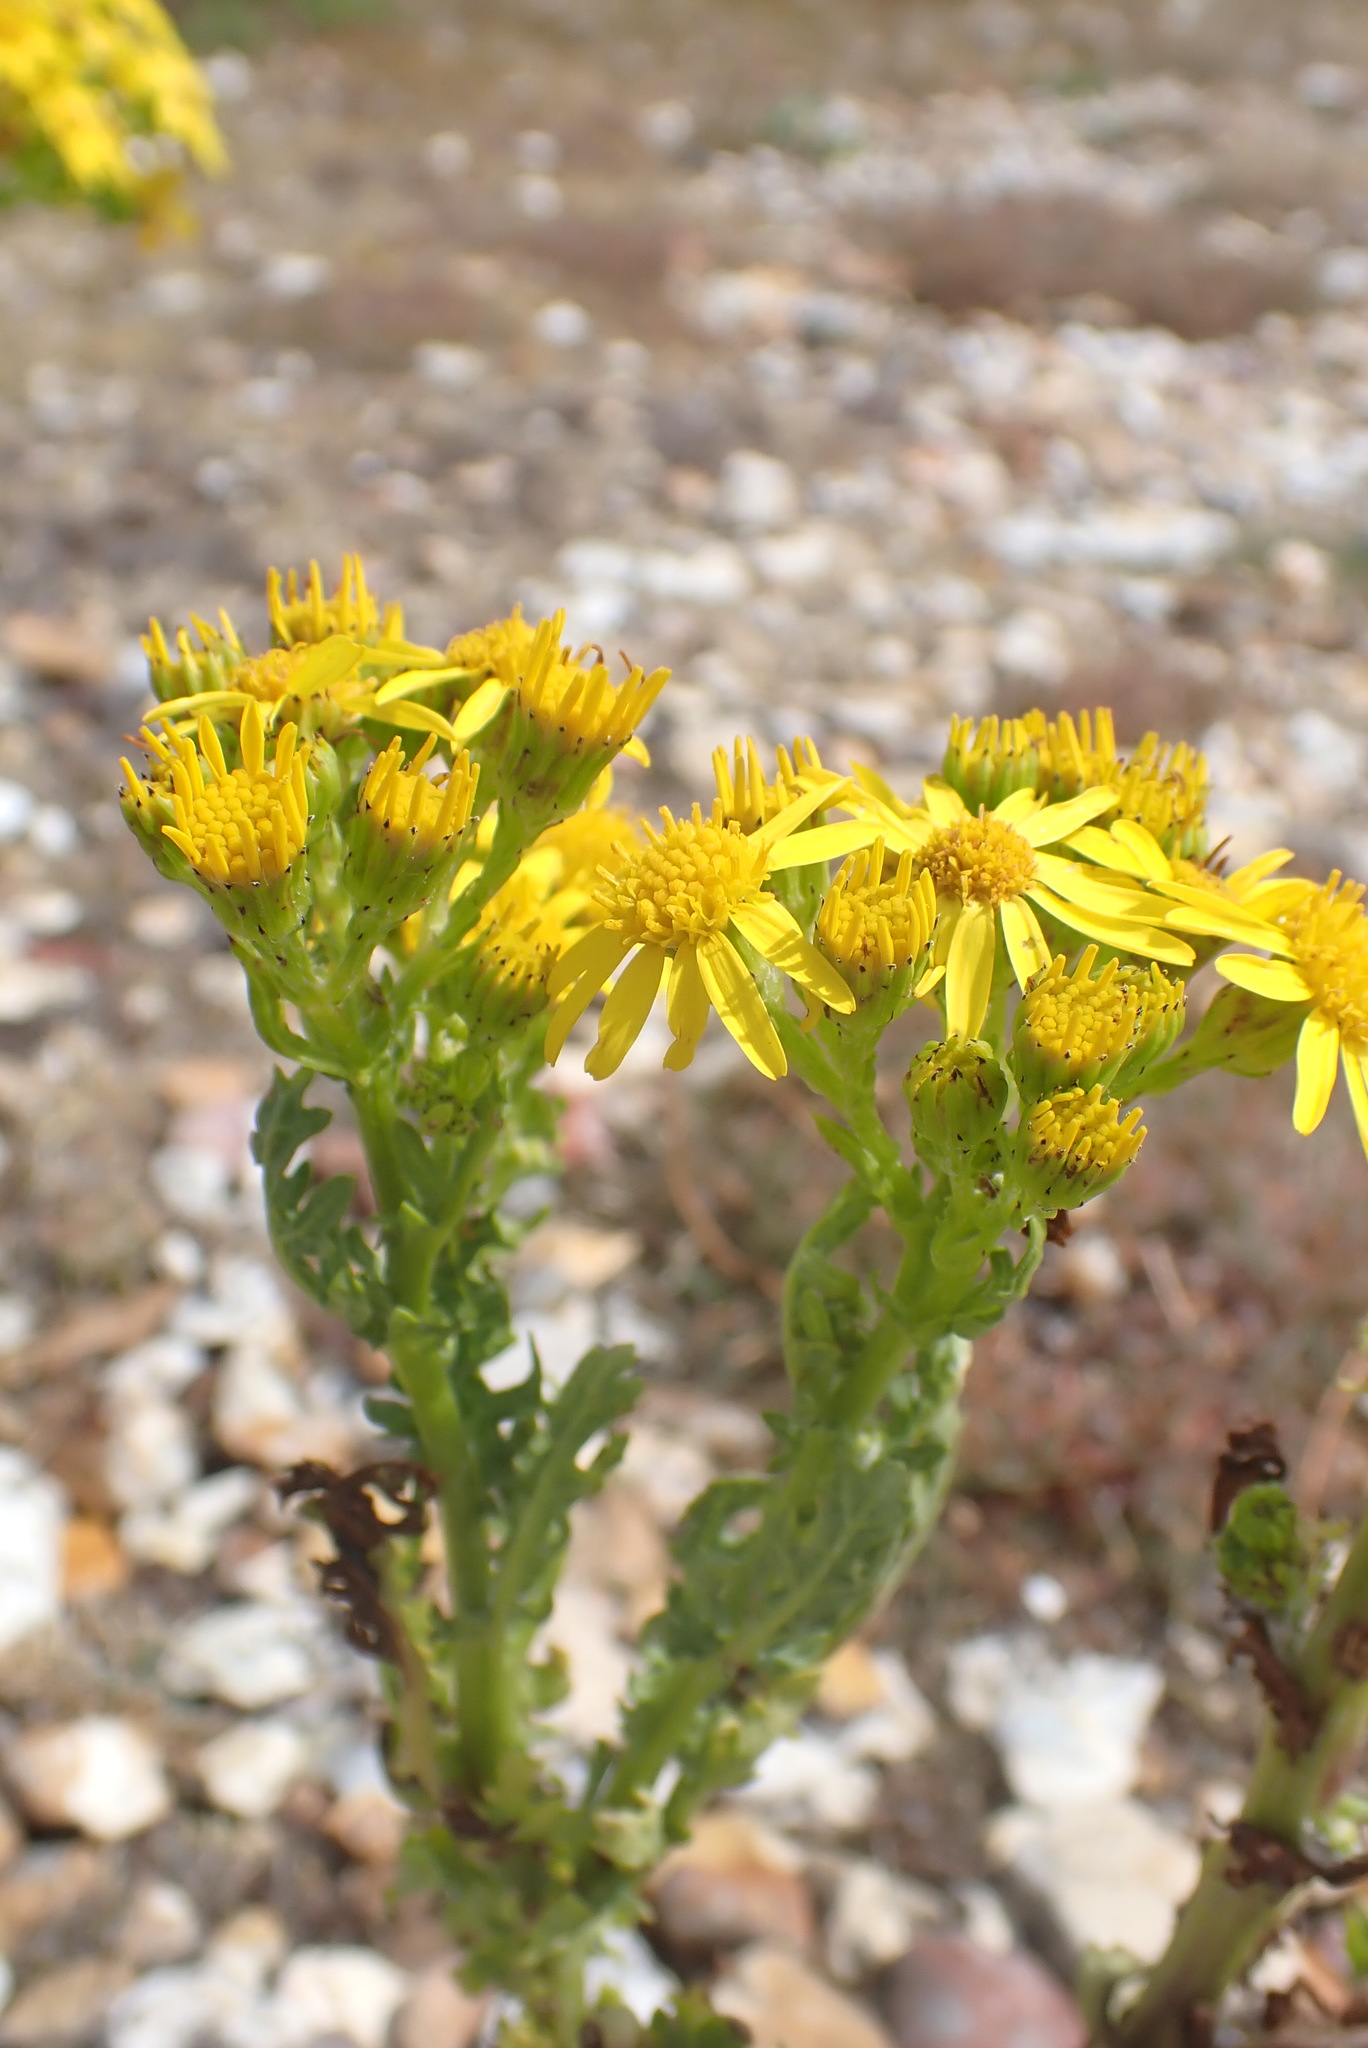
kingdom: Plantae
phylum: Tracheophyta
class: Magnoliopsida
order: Asterales
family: Asteraceae
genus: Jacobaea
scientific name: Jacobaea vulgaris
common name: Stinking willie
